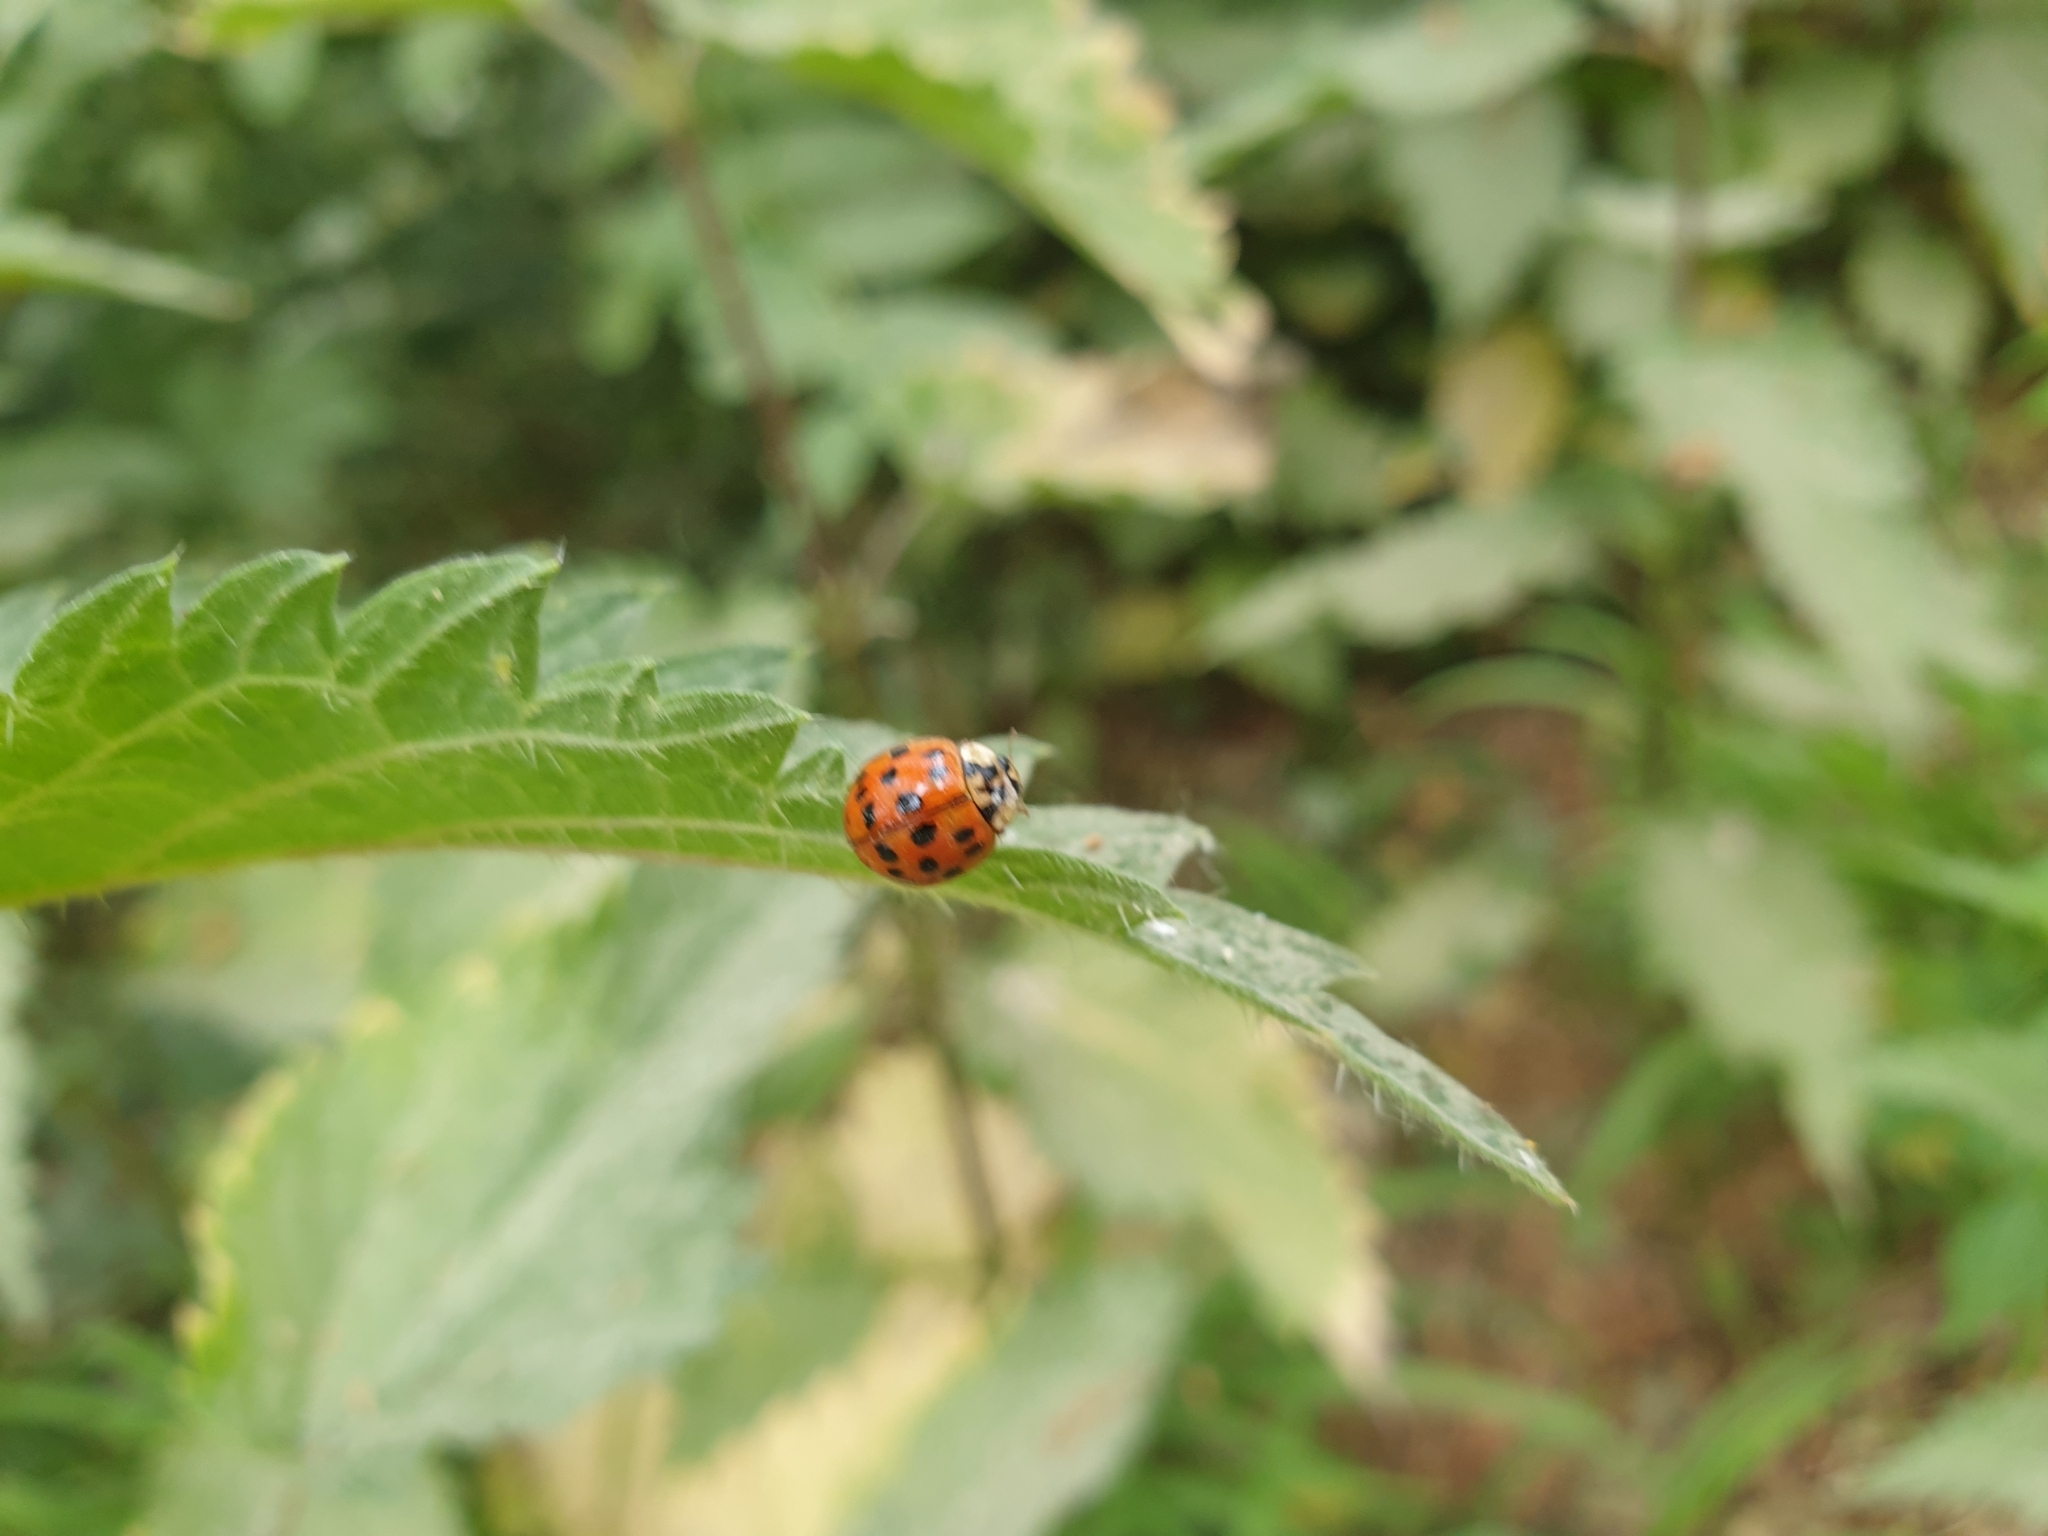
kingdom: Animalia
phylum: Arthropoda
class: Insecta
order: Coleoptera
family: Coccinellidae
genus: Harmonia
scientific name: Harmonia axyridis
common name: Harlequin ladybird
